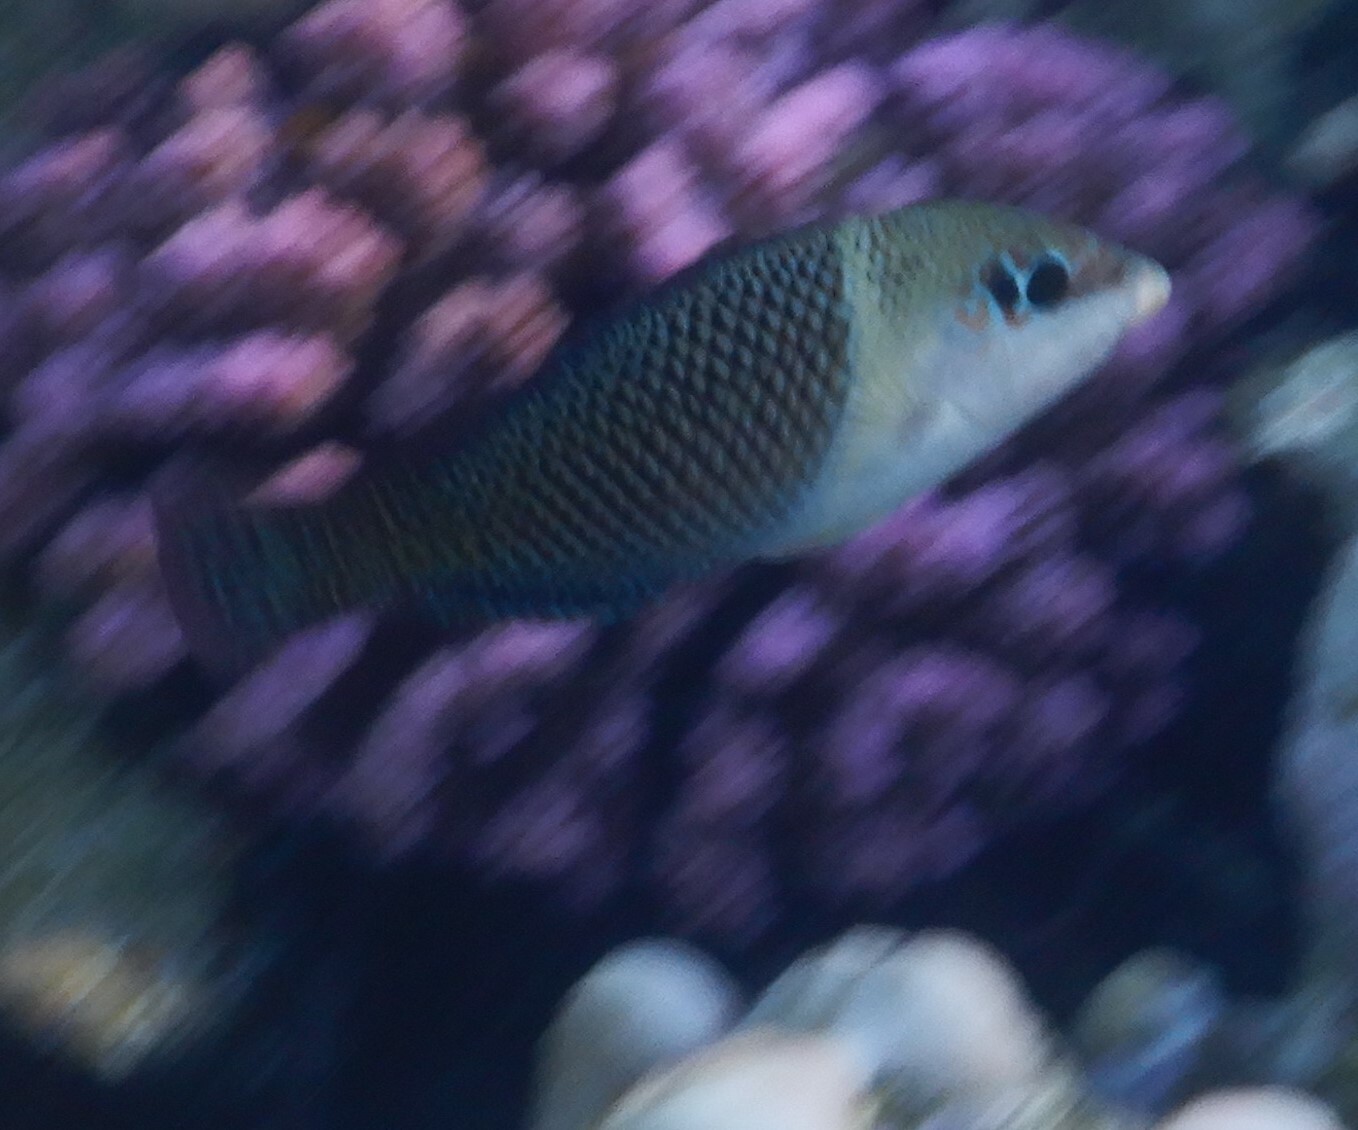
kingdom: Animalia
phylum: Chordata
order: Perciformes
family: Labridae
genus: Hemigymnus
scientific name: Hemigymnus melapterus
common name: Blackeye thicklip
